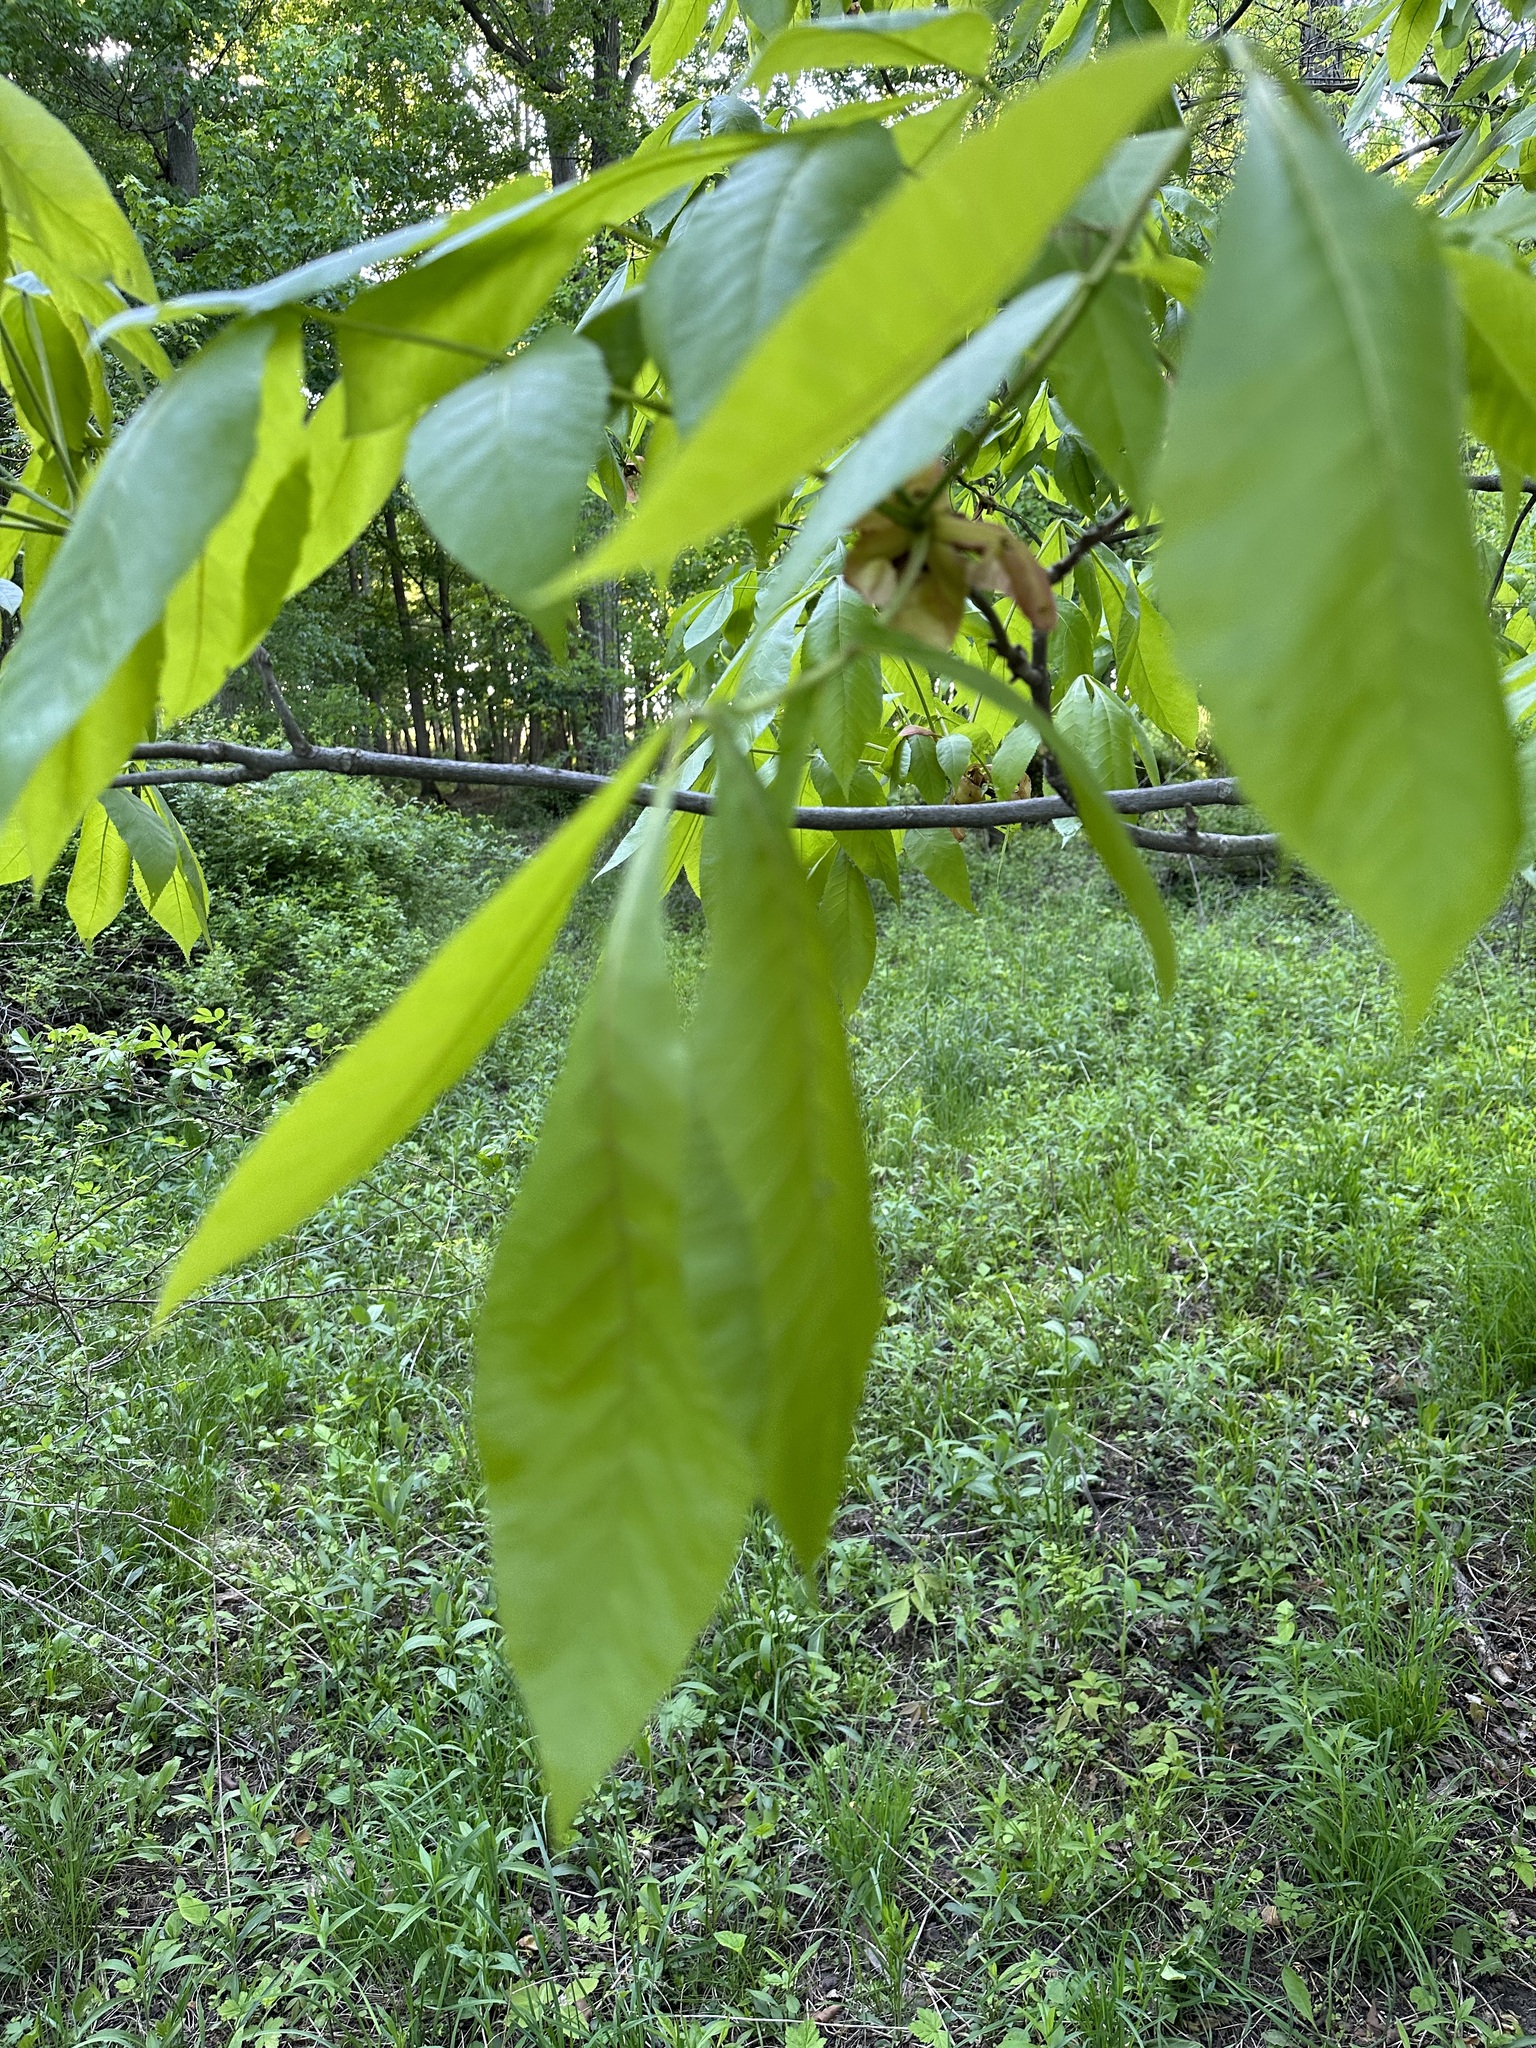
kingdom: Plantae
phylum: Tracheophyta
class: Magnoliopsida
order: Fagales
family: Juglandaceae
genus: Carya
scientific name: Carya ovata
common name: Shagbark hickory
